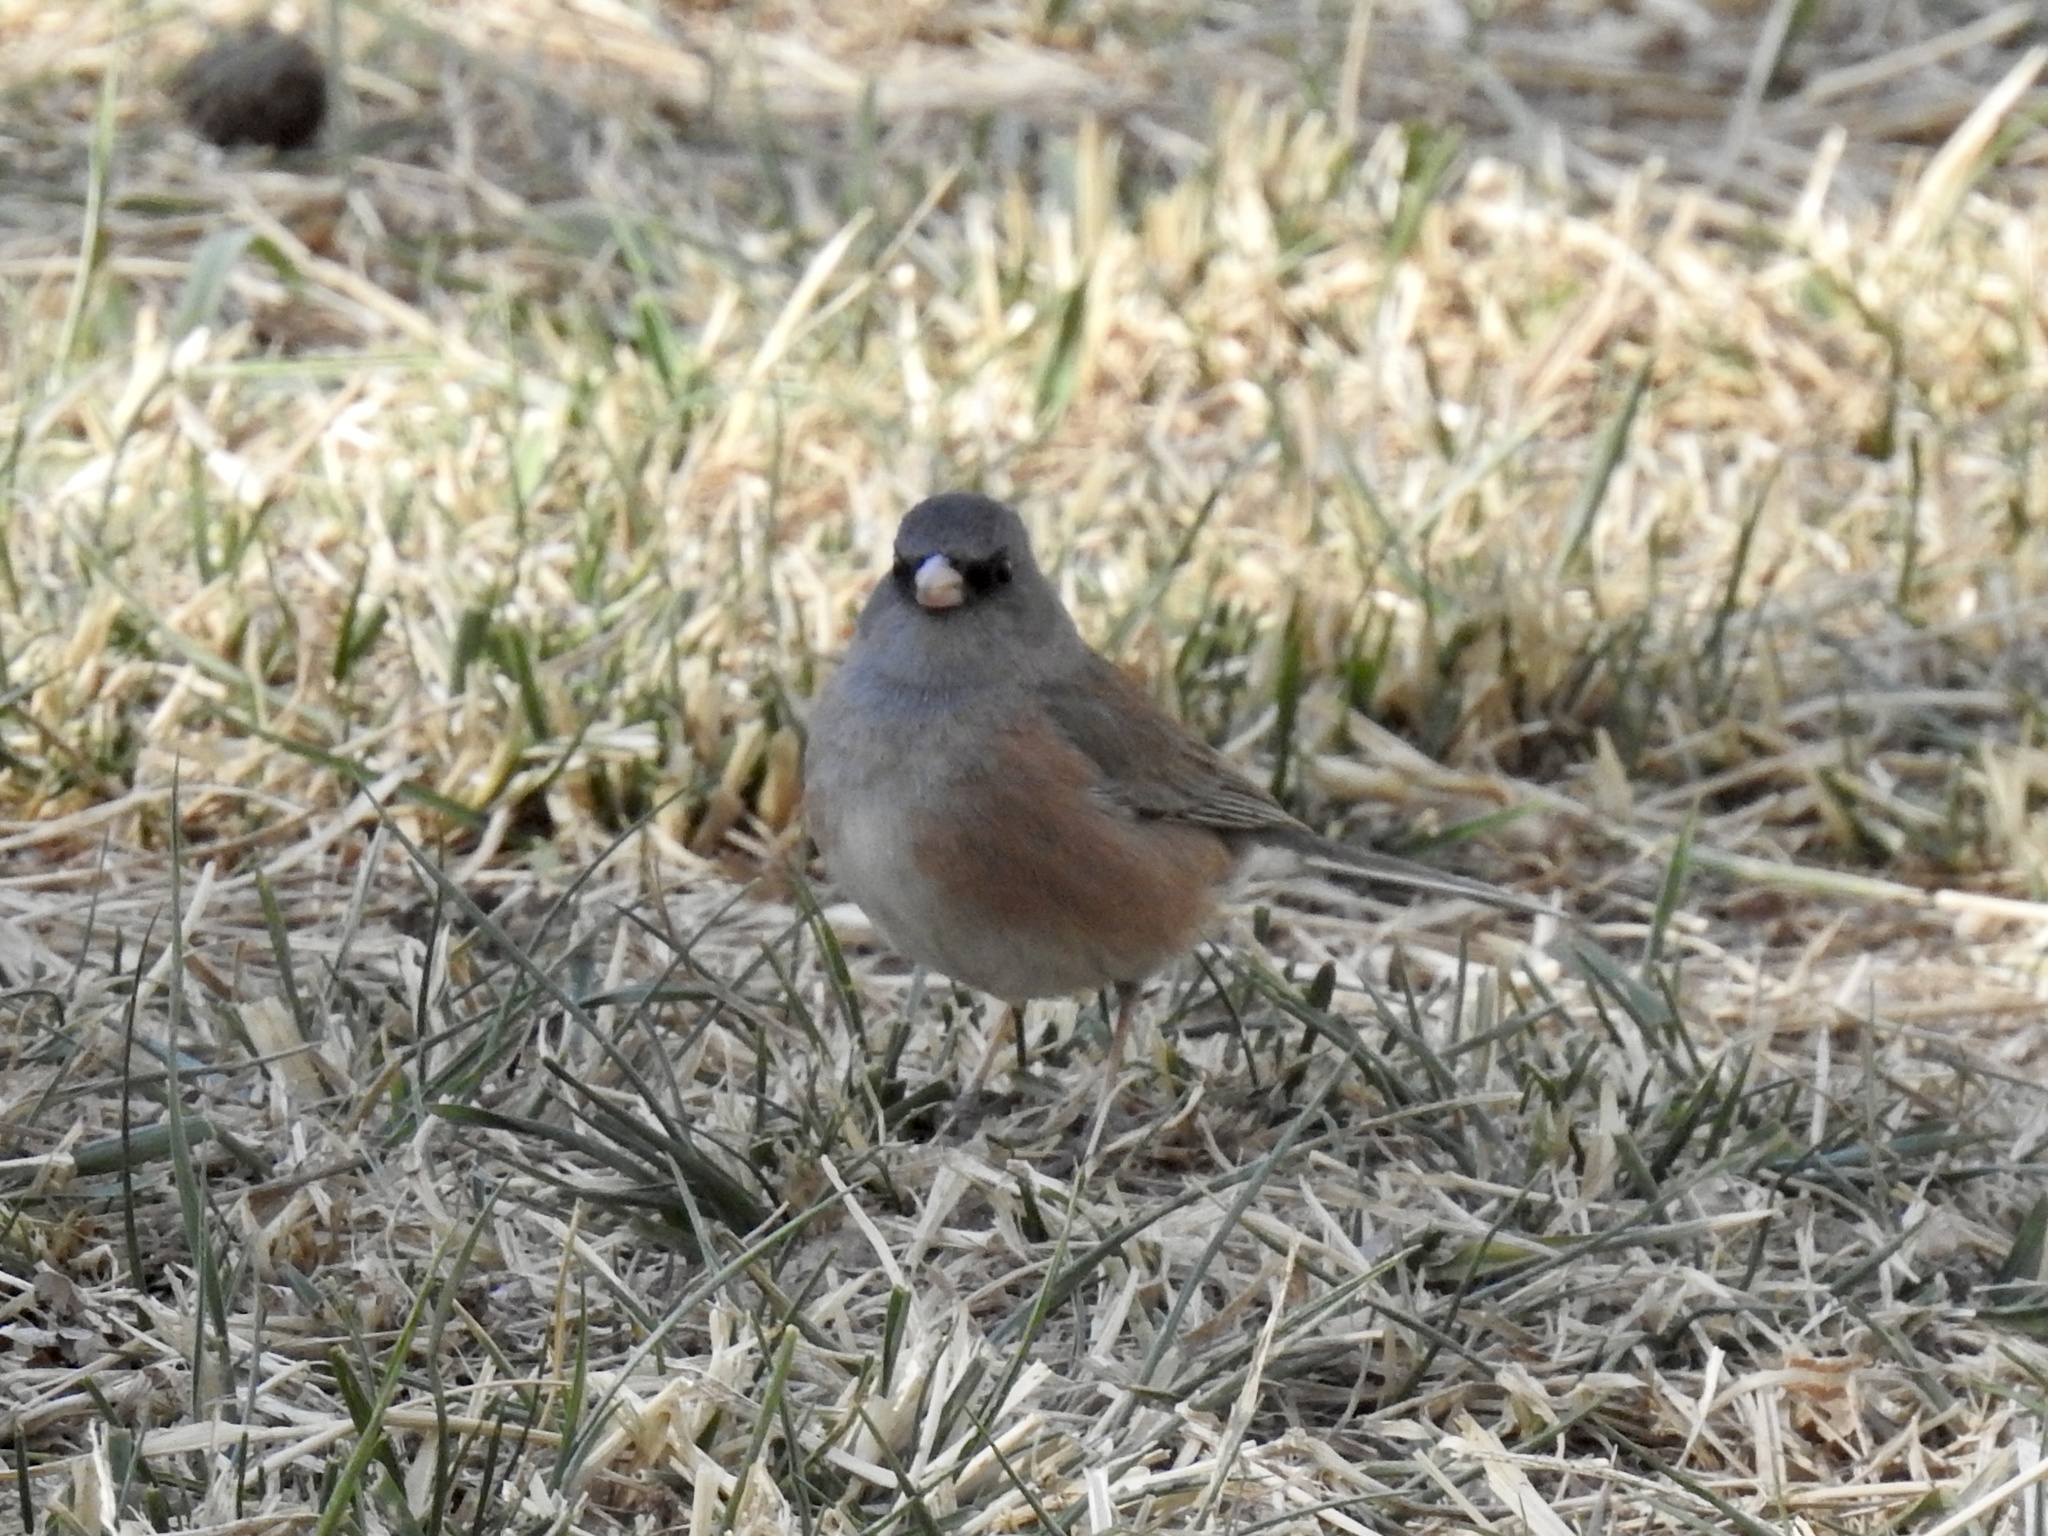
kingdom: Animalia
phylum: Chordata
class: Aves
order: Passeriformes
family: Passerellidae
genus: Junco
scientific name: Junco hyemalis
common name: Dark-eyed junco
